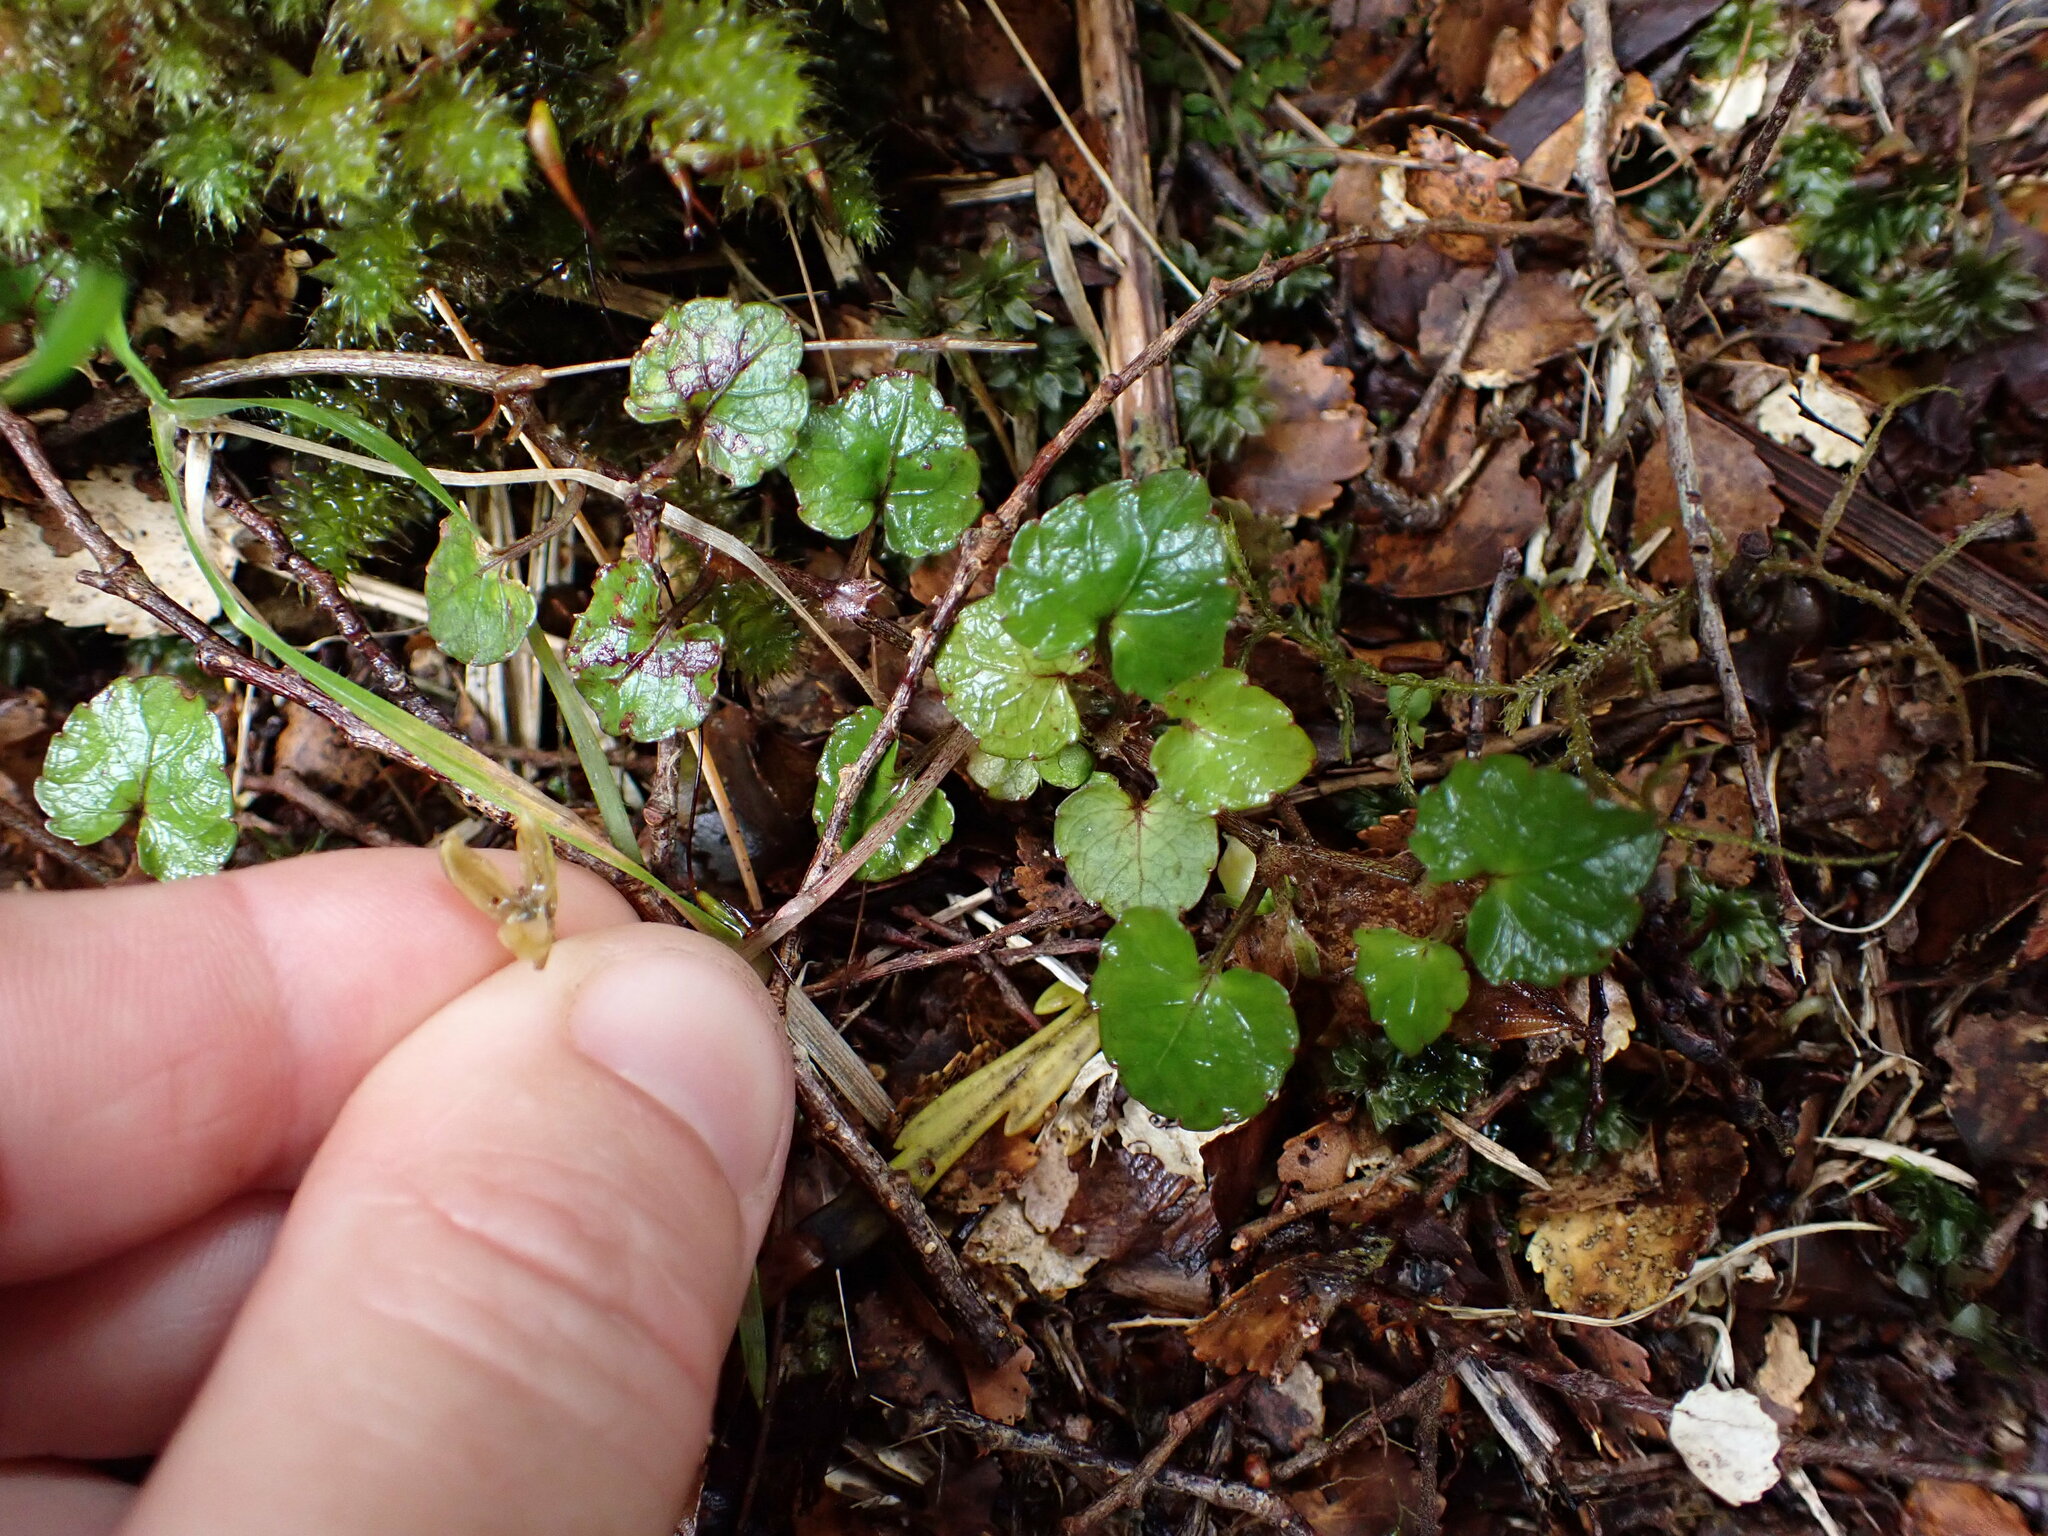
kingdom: Plantae
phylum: Tracheophyta
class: Magnoliopsida
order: Malpighiales
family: Violaceae
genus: Viola
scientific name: Viola filicaulis
